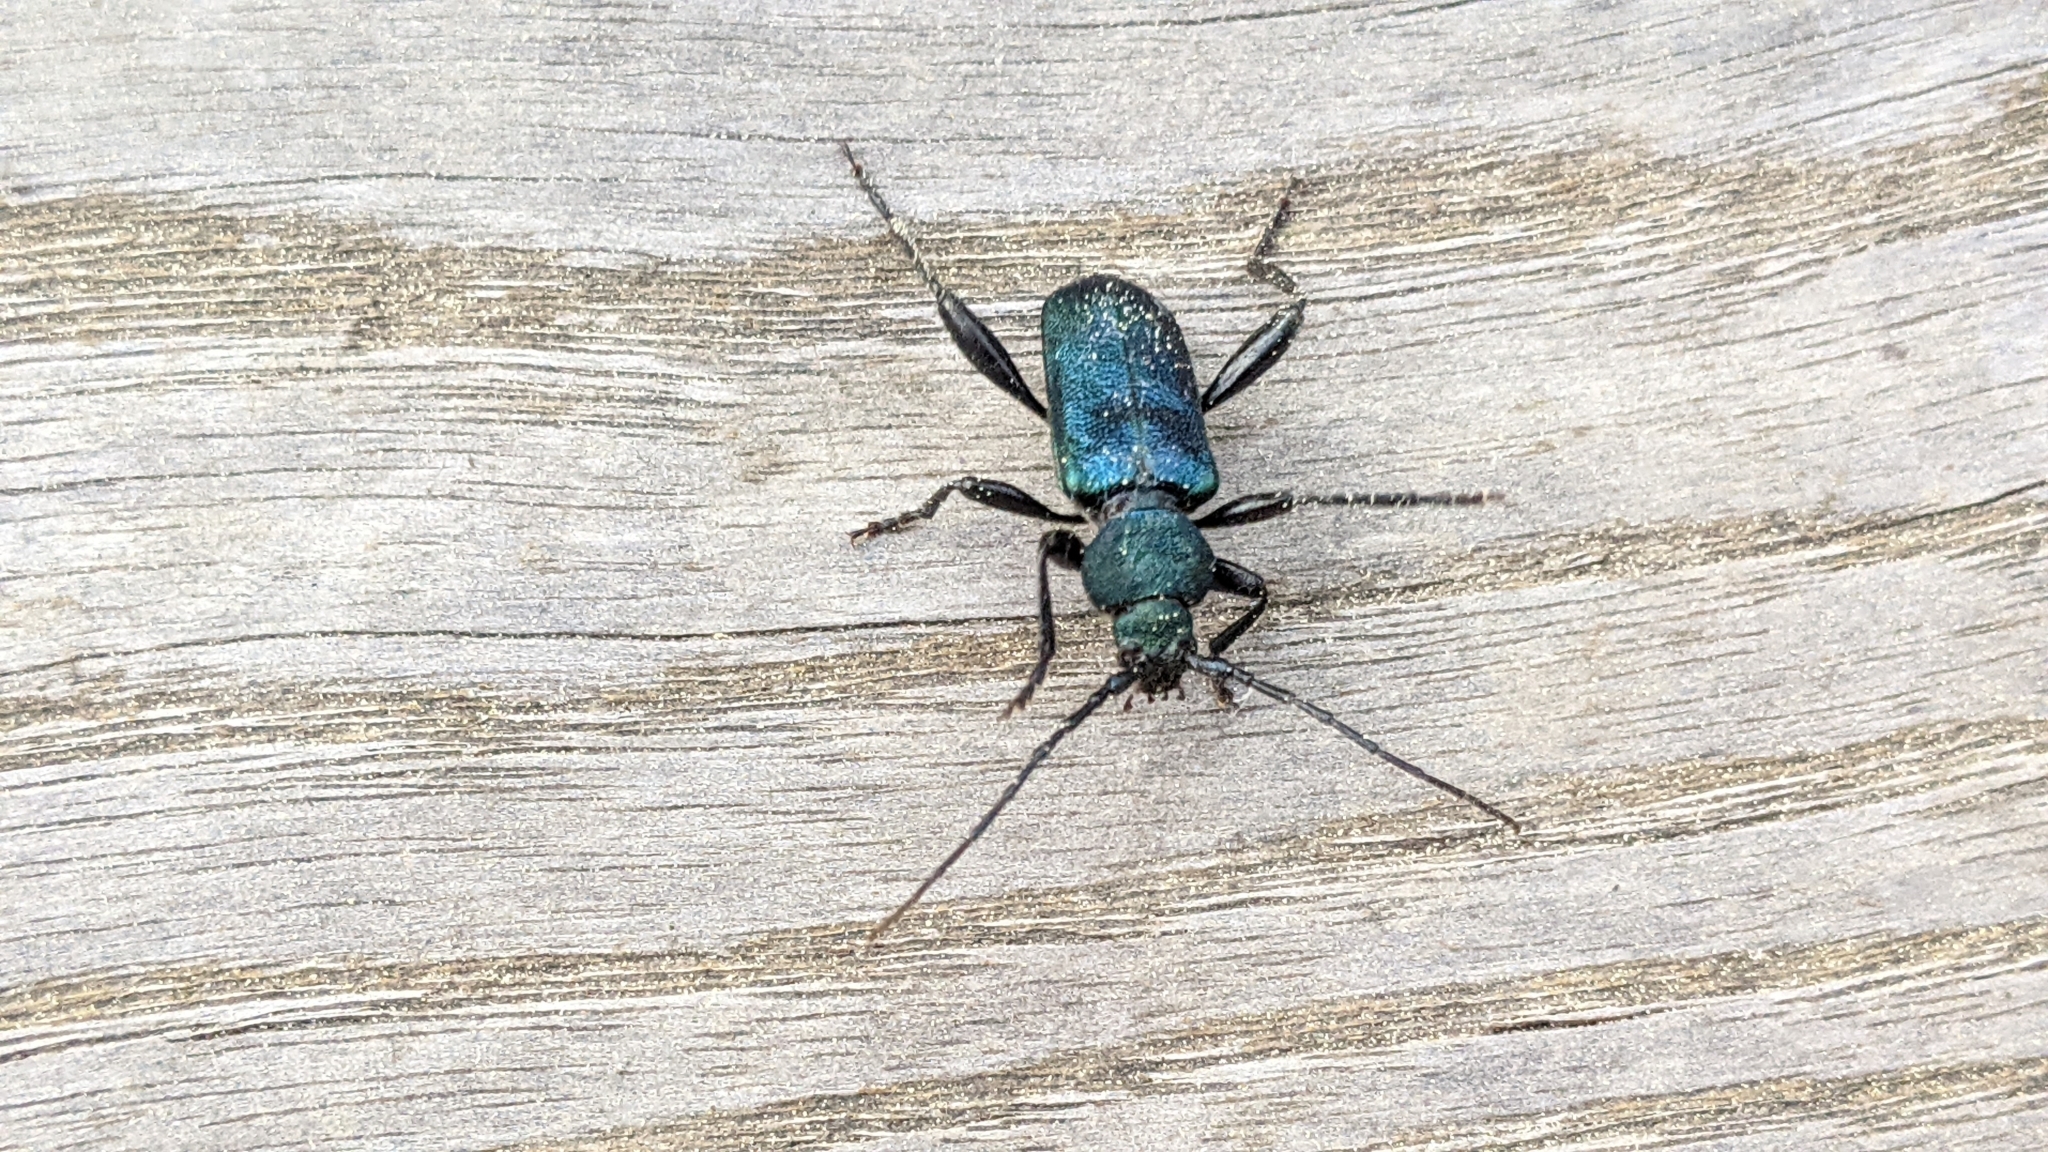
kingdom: Animalia
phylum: Arthropoda
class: Insecta
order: Coleoptera
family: Cerambycidae
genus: Callidium
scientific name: Callidium violaceum
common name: Violet tanbark beetle
